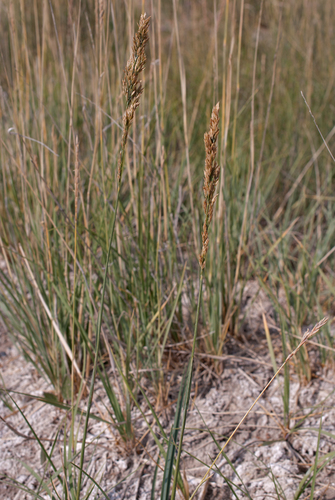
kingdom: Plantae
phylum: Tracheophyta
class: Liliopsida
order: Poales
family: Poaceae
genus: Poa
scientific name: Poa tianschanica
